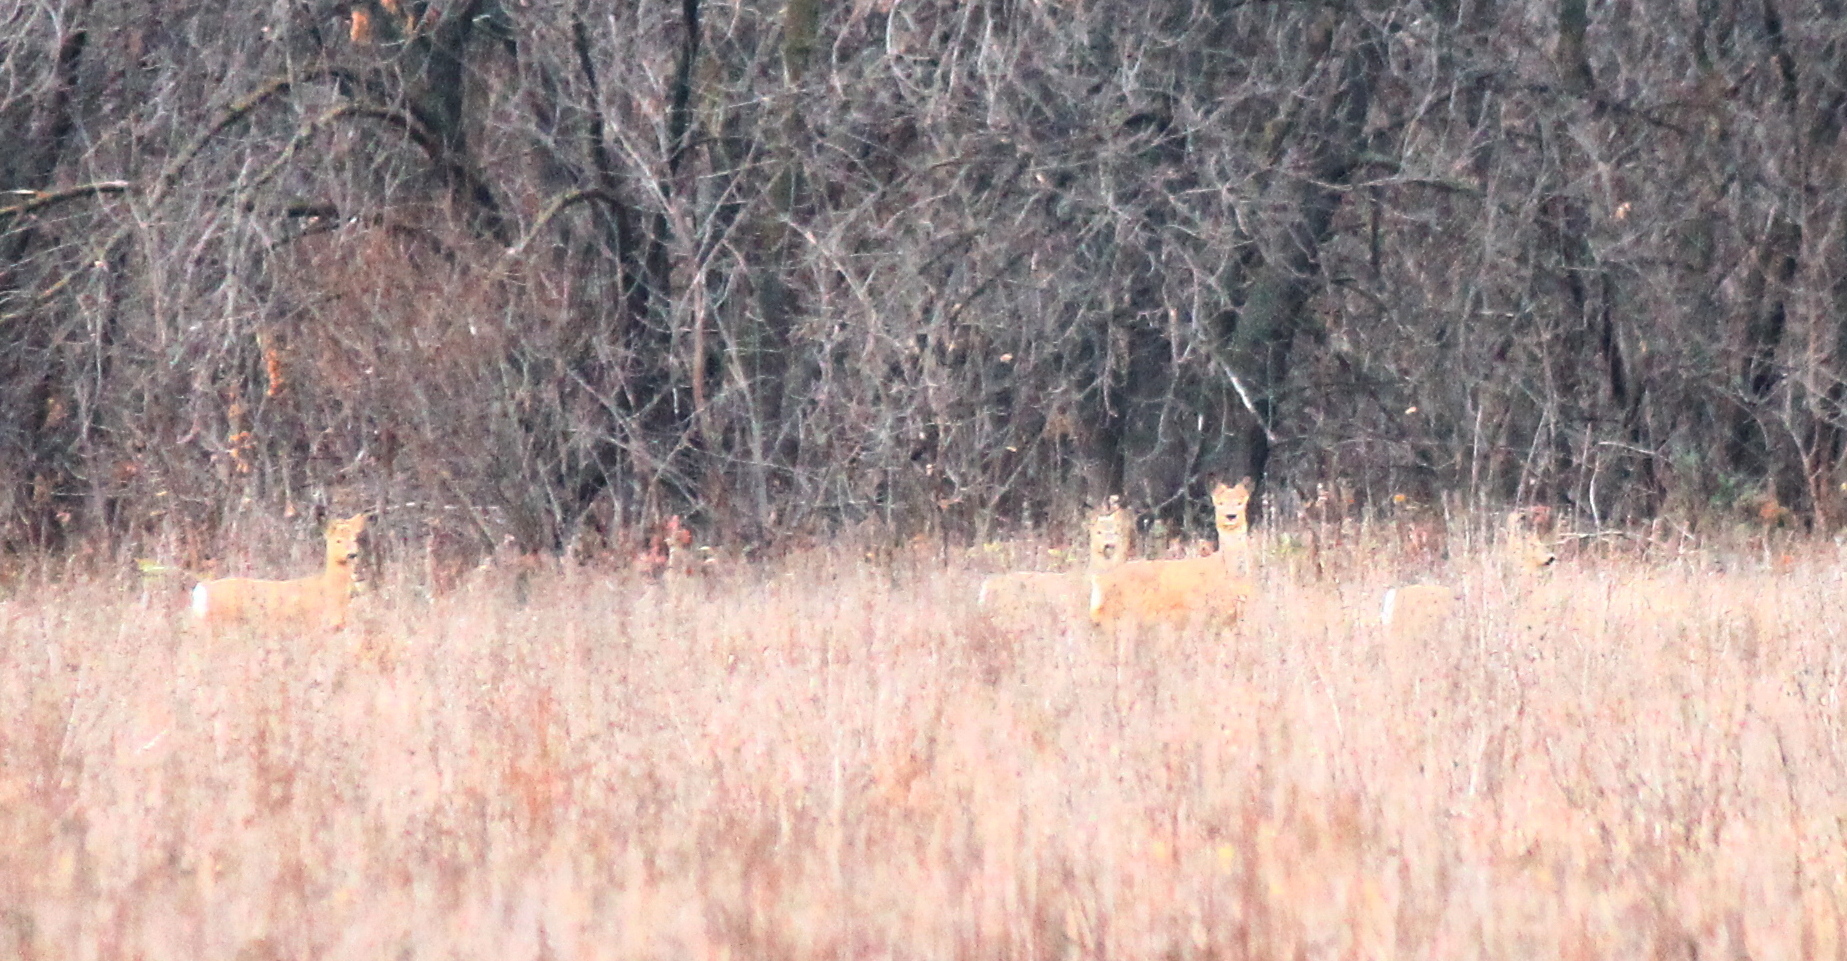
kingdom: Animalia
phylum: Chordata
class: Mammalia
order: Artiodactyla
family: Cervidae
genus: Capreolus
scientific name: Capreolus pygargus
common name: Siberian roe
